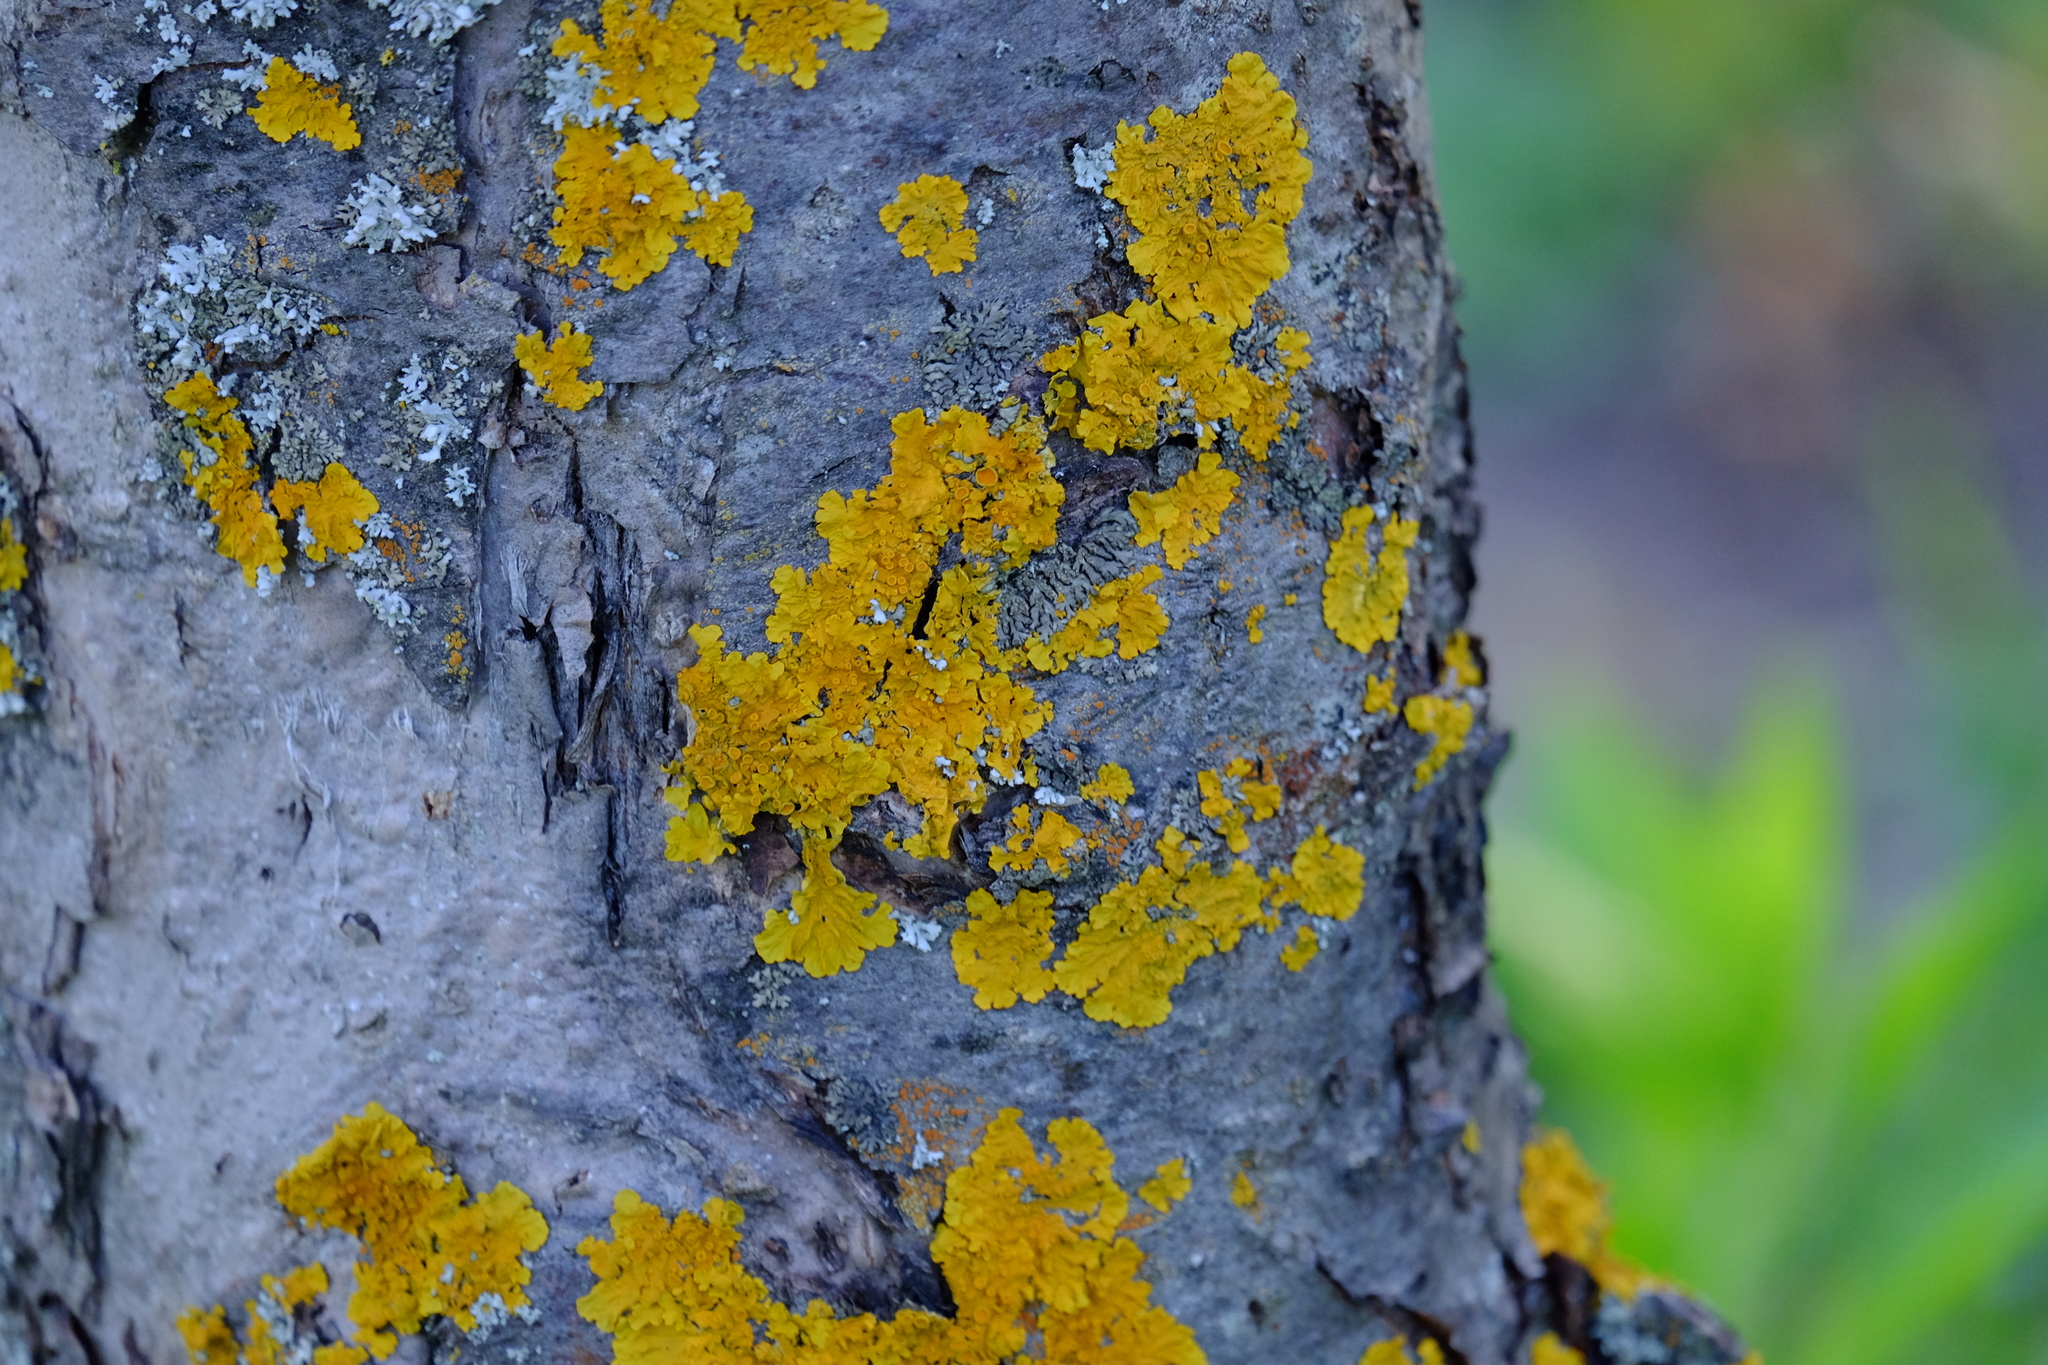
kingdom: Fungi
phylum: Ascomycota
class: Lecanoromycetes
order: Teloschistales
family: Teloschistaceae
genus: Xanthoria
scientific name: Xanthoria parietina
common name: Common orange lichen
